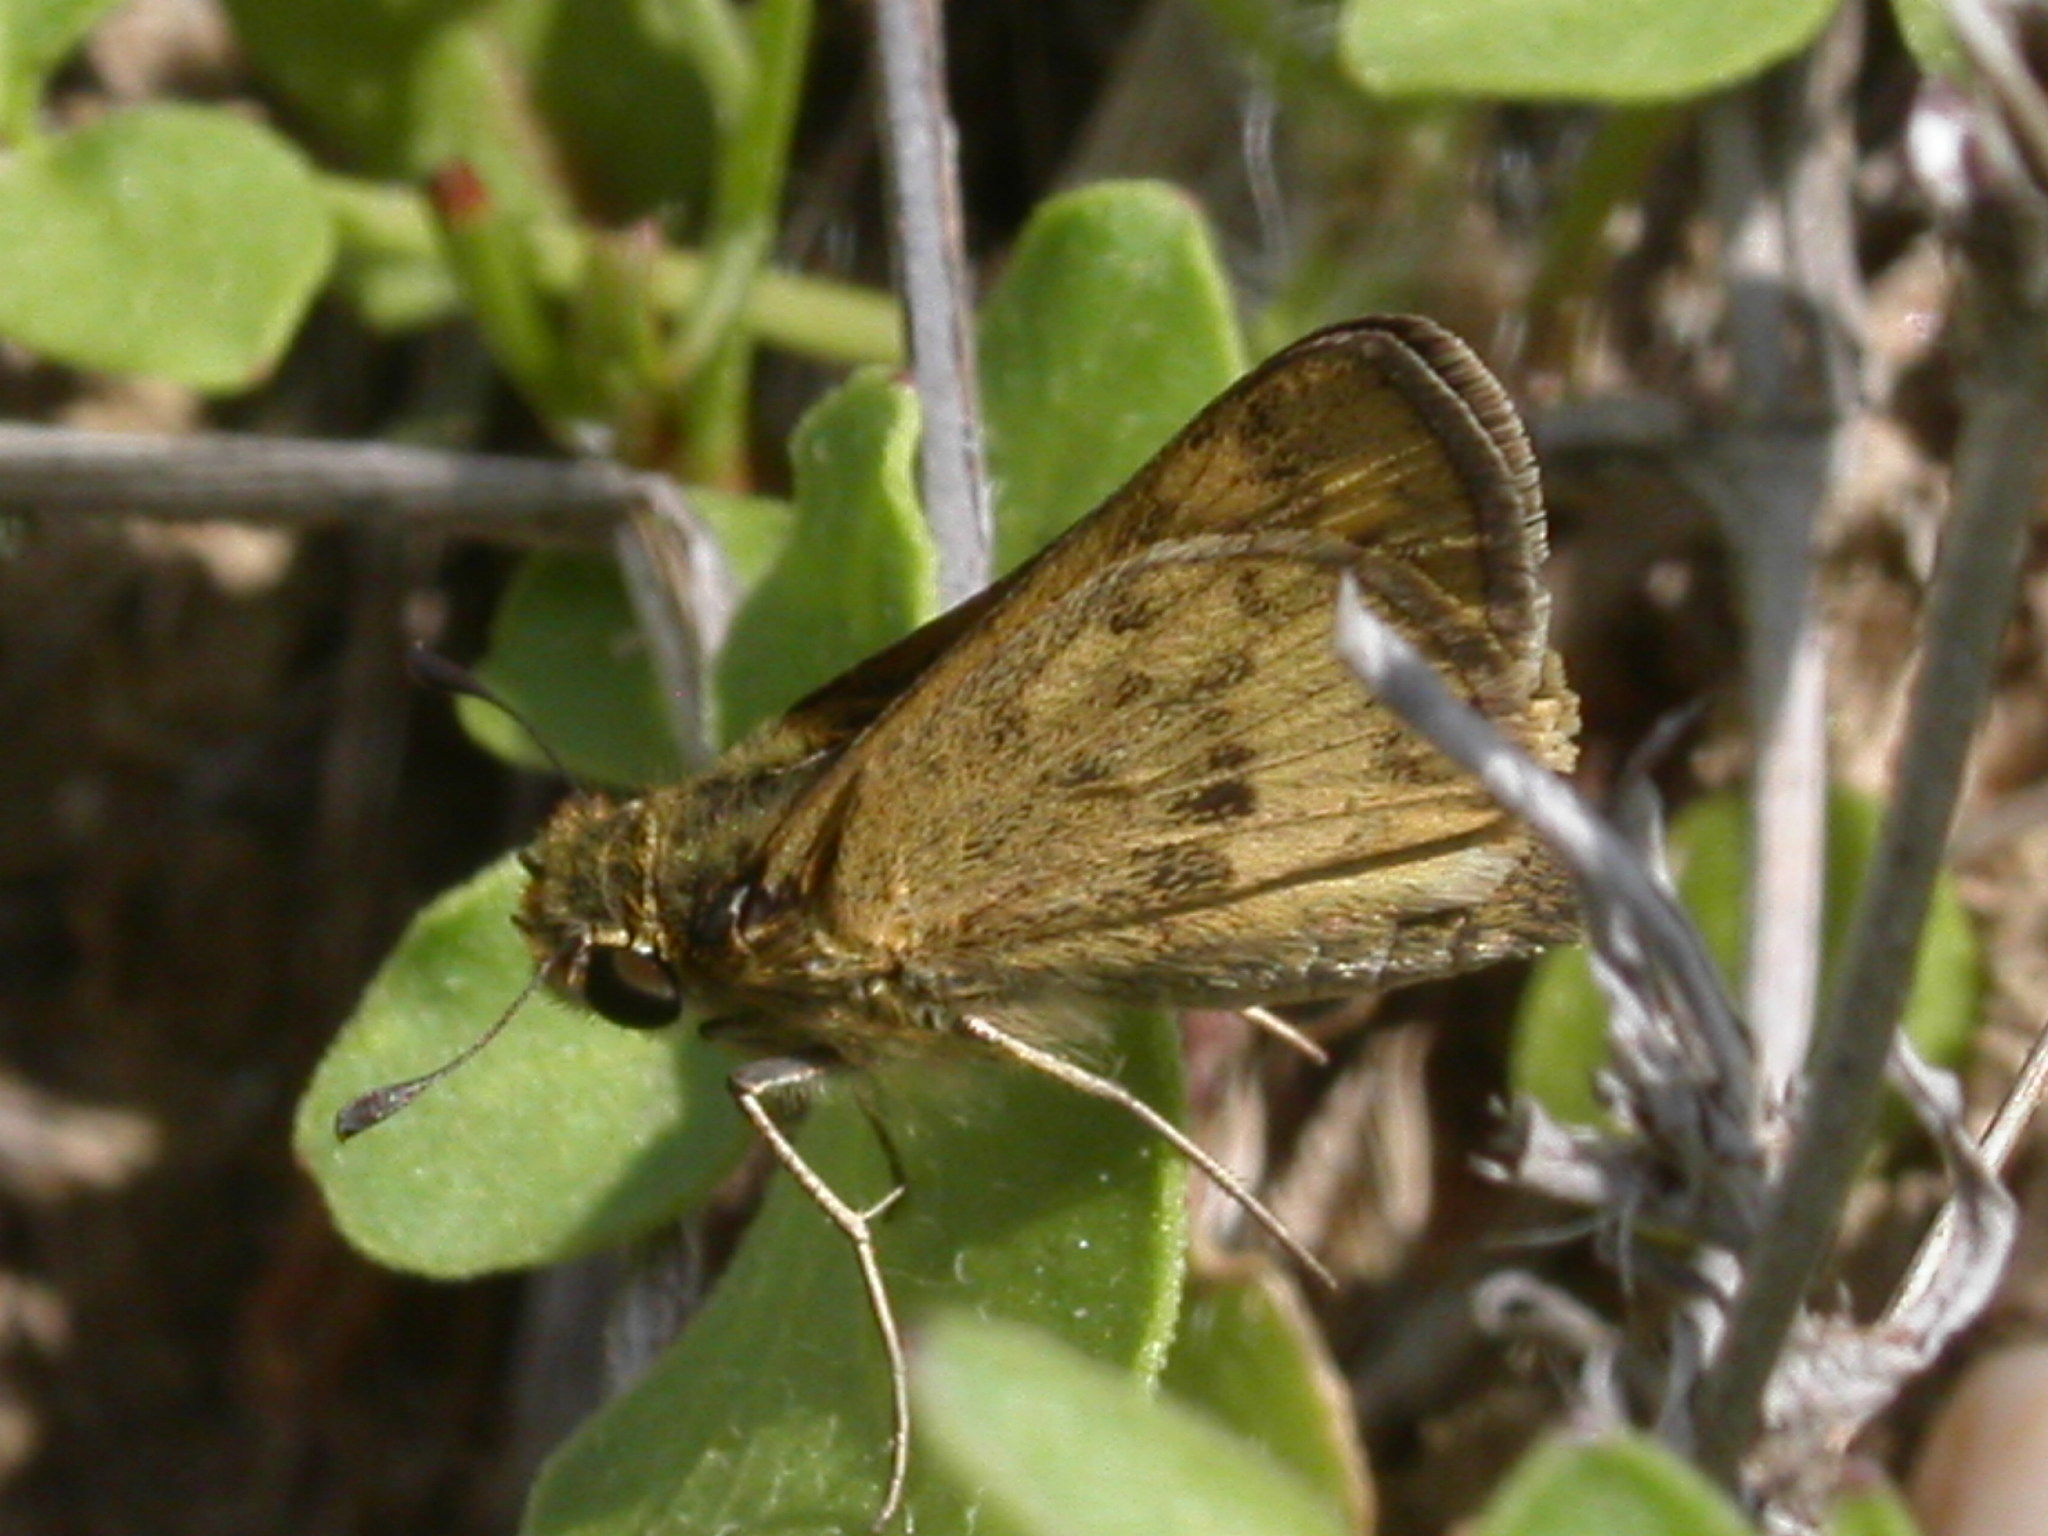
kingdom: Animalia
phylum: Arthropoda
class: Insecta
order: Lepidoptera
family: Hesperiidae
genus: Hylephila
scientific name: Hylephila phyleus
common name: Fiery skipper
